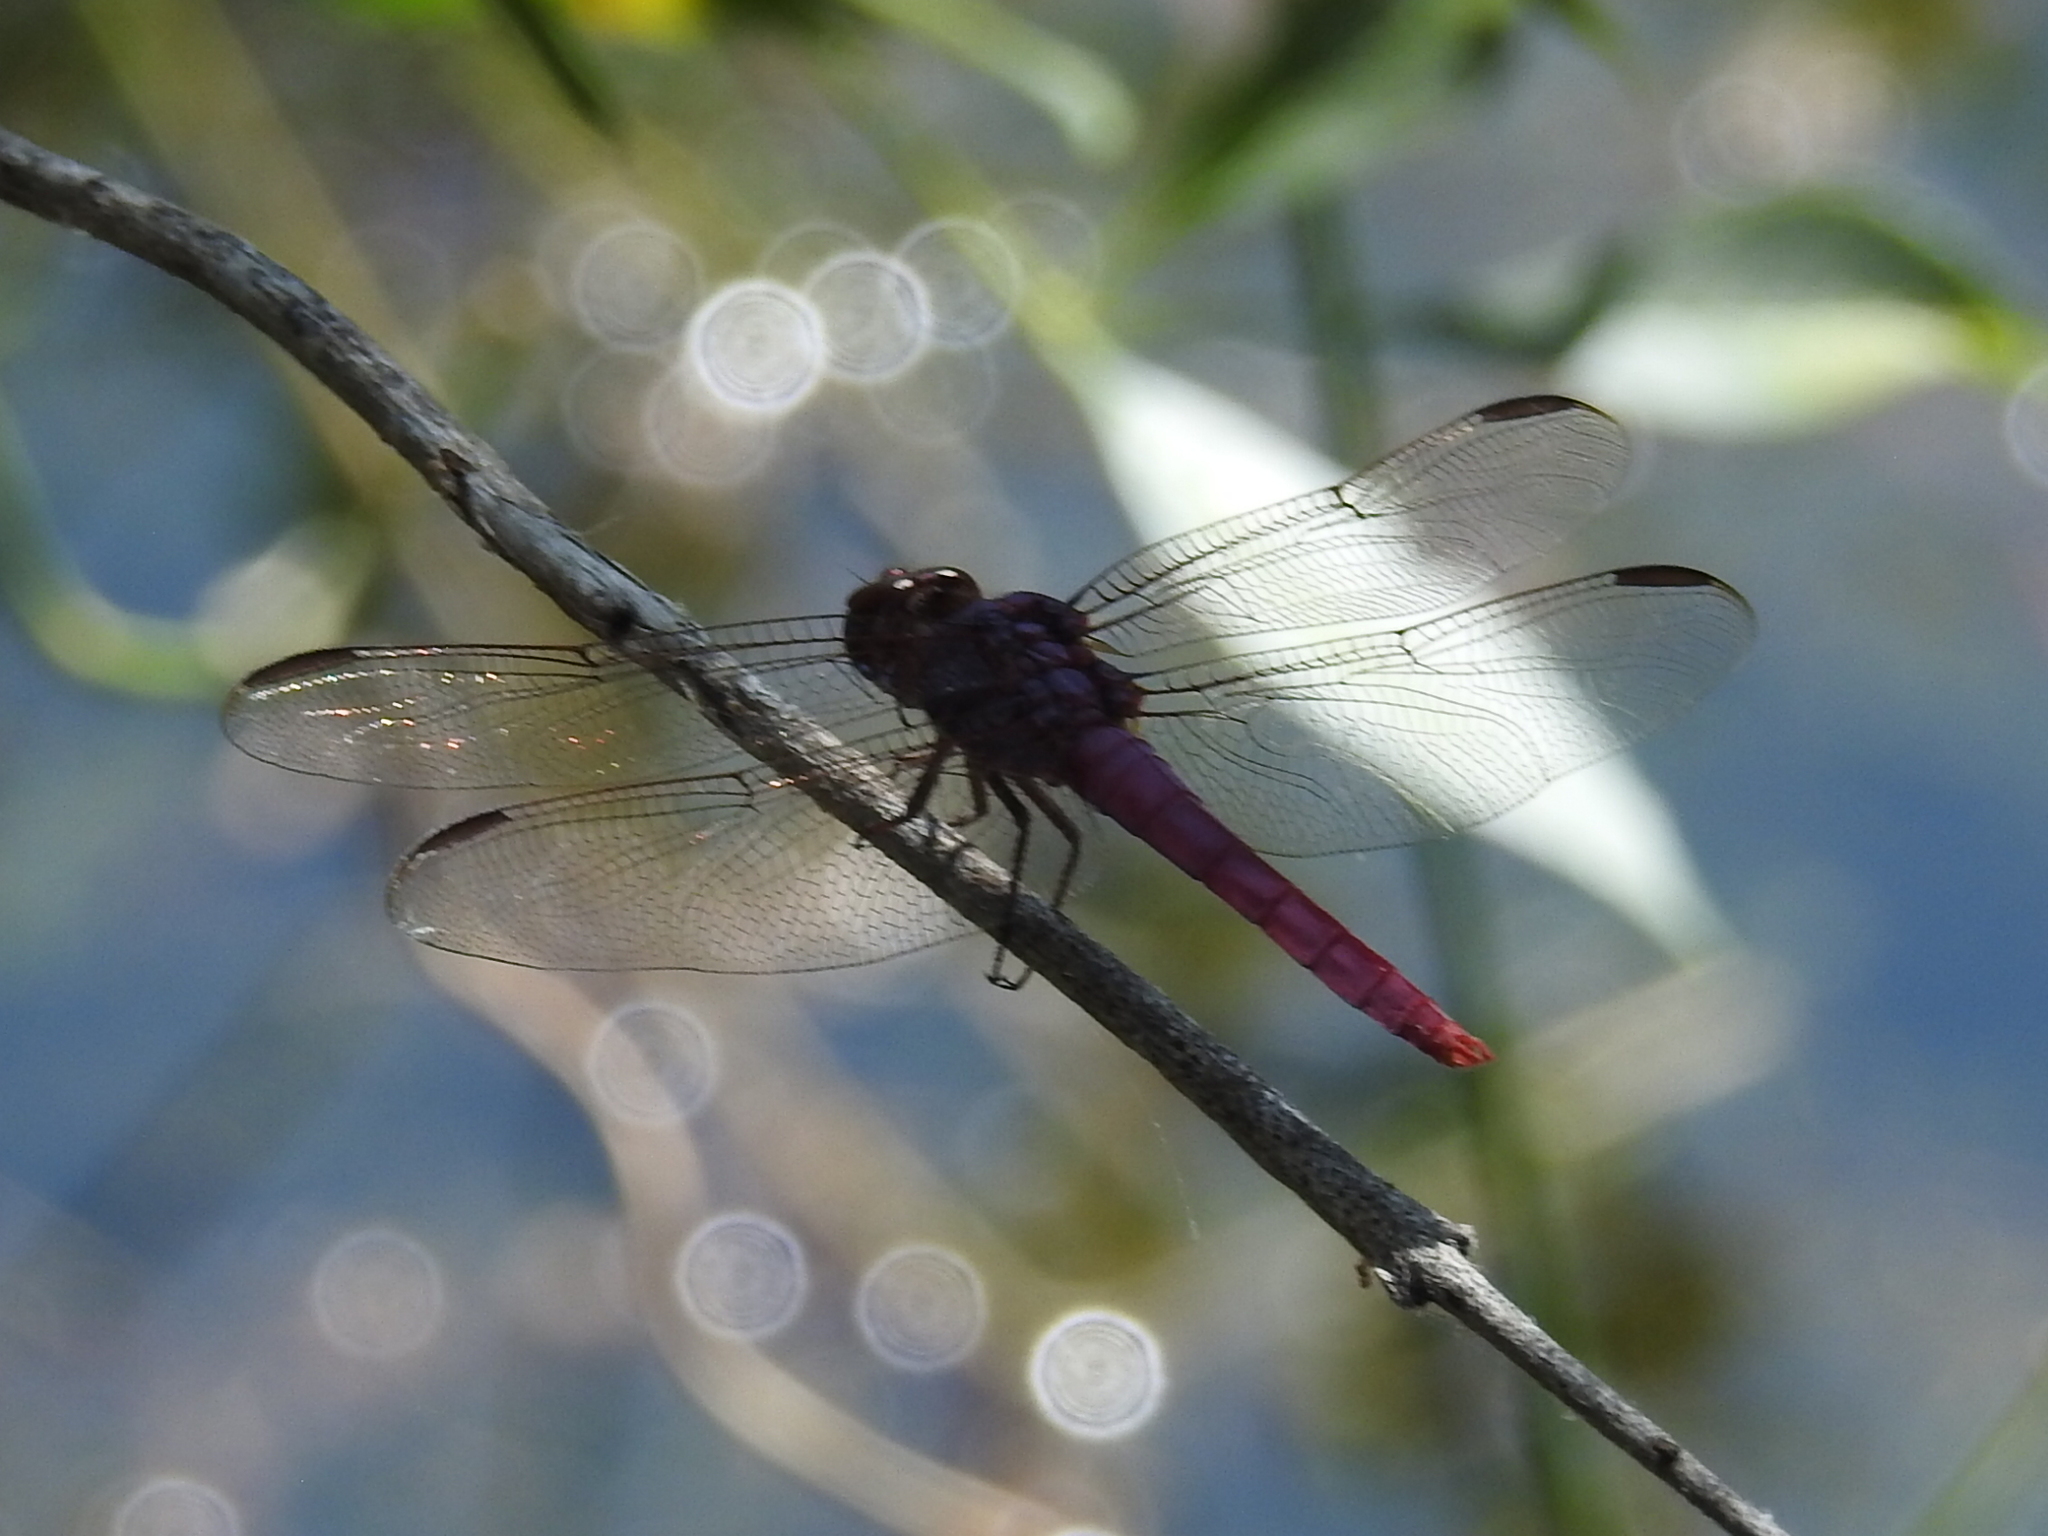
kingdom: Animalia
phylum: Arthropoda
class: Insecta
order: Odonata
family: Libellulidae
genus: Orthemis
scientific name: Orthemis ferruginea
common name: Roseate skimmer
